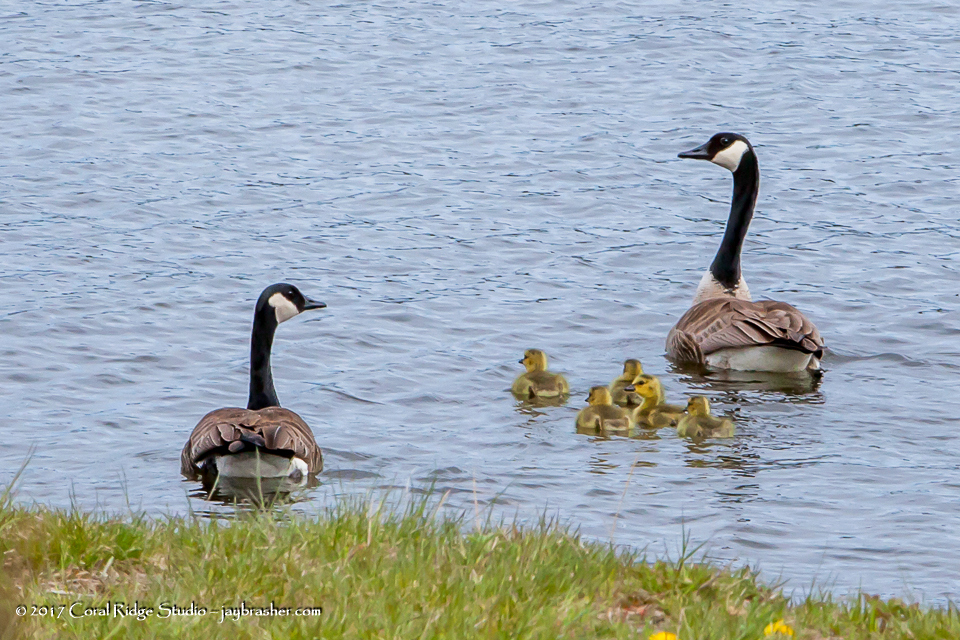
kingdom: Animalia
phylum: Chordata
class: Aves
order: Anseriformes
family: Anatidae
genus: Branta
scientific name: Branta canadensis
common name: Canada goose
